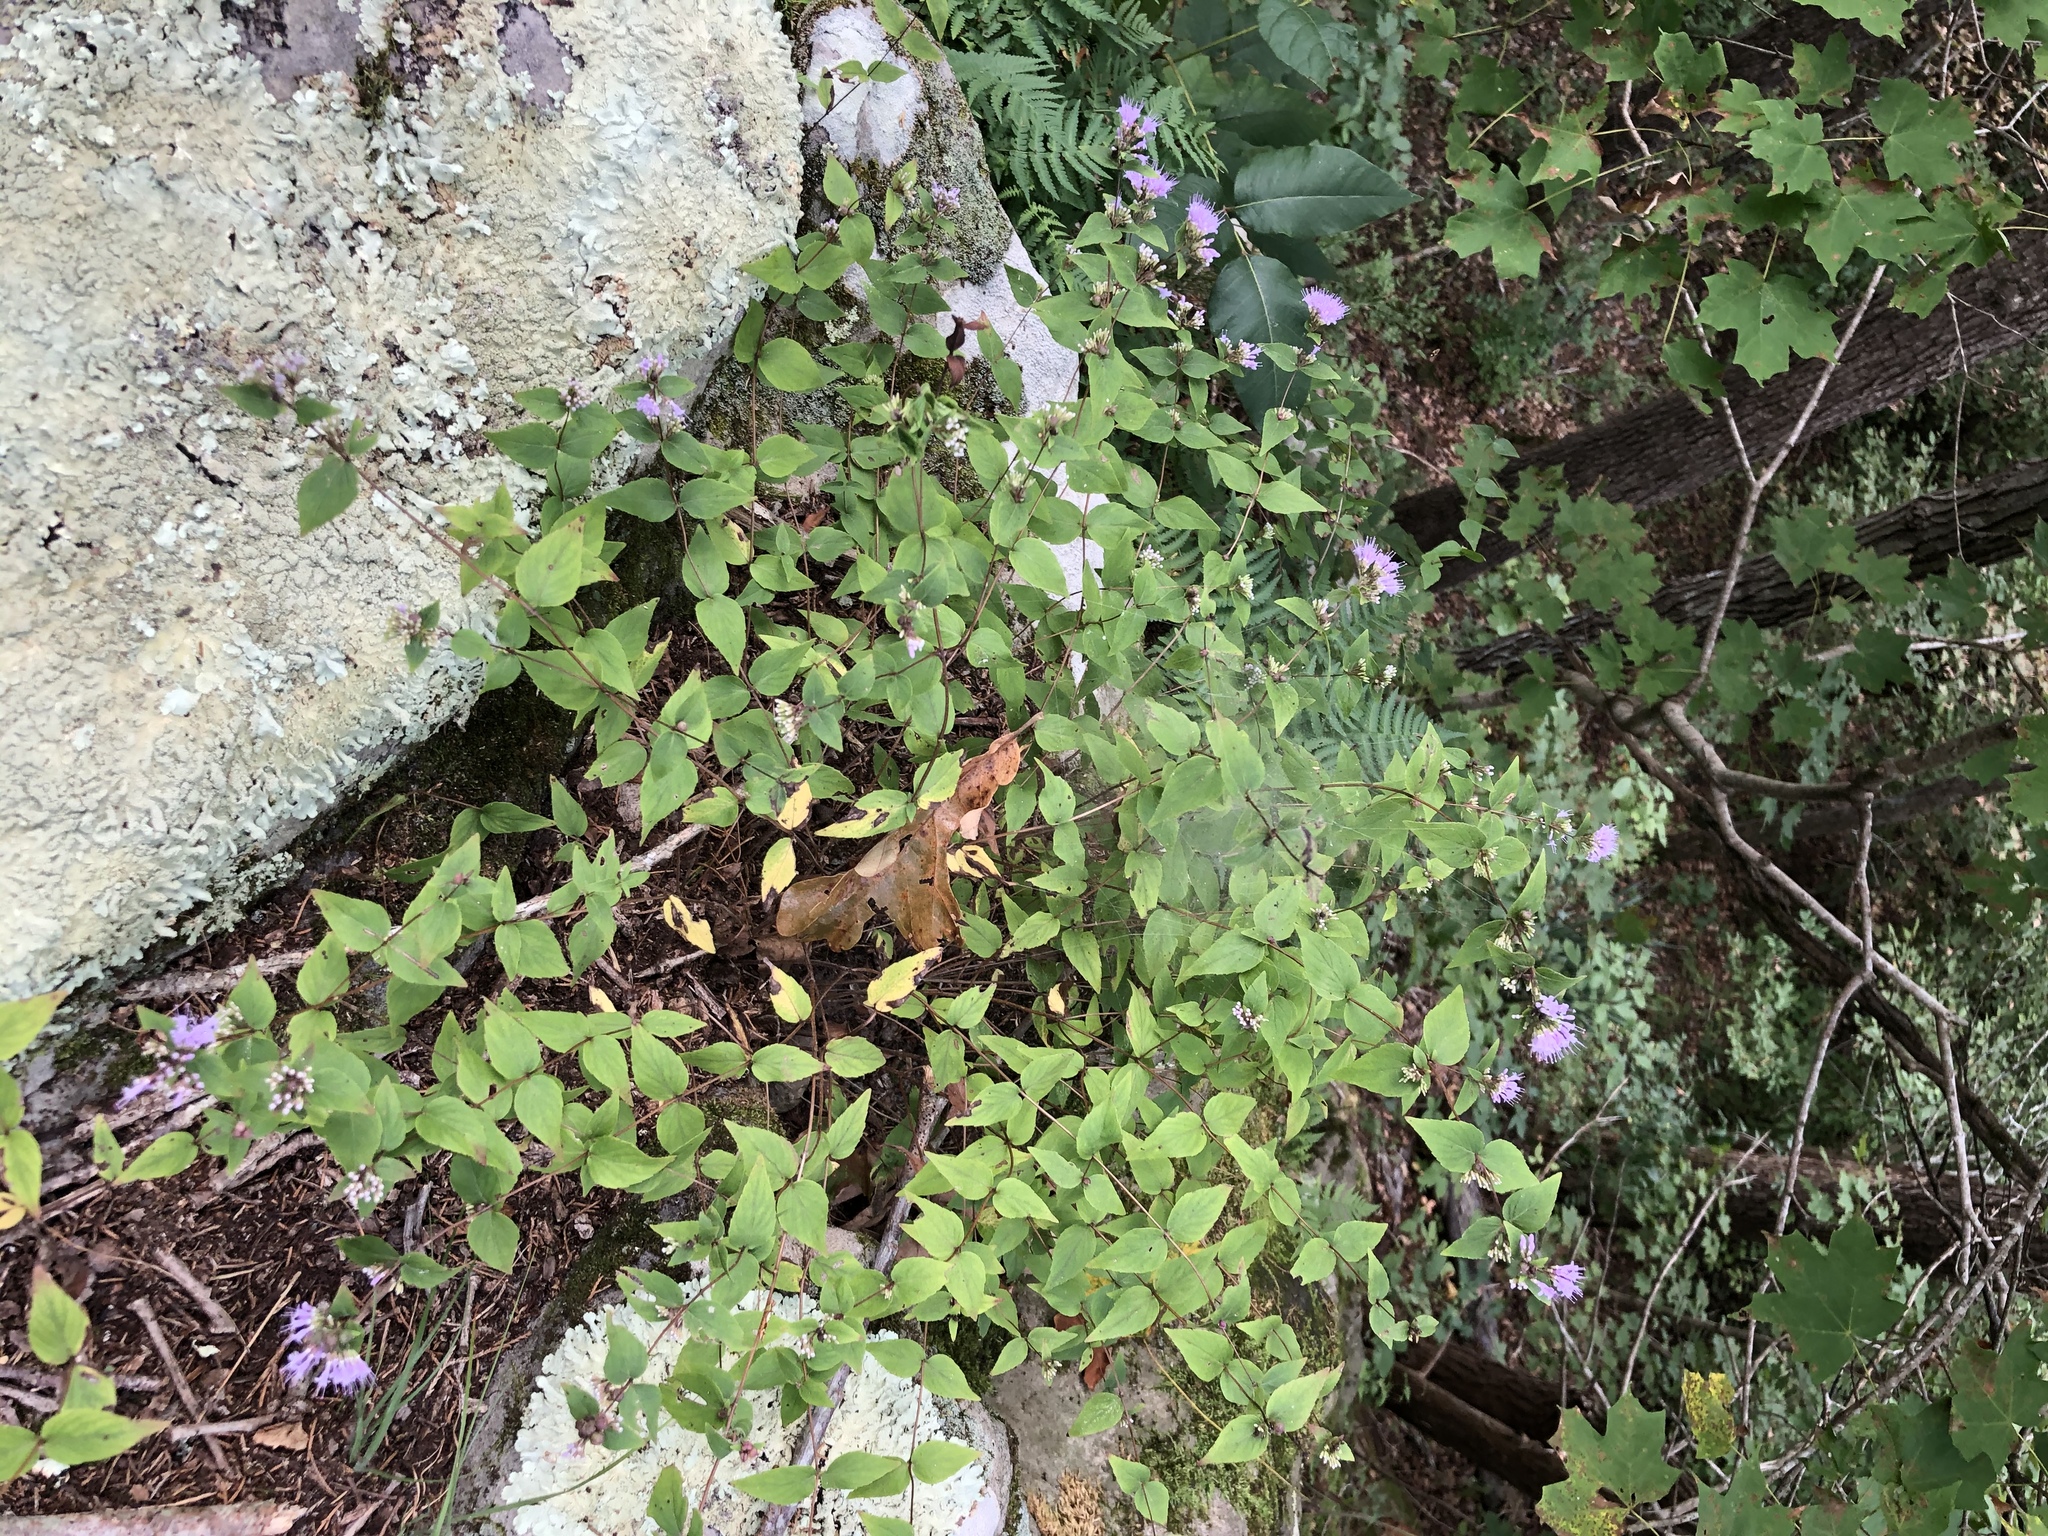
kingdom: Plantae
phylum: Tracheophyta
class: Magnoliopsida
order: Lamiales
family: Lamiaceae
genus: Cunila
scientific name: Cunila origanoides
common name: American dittany
